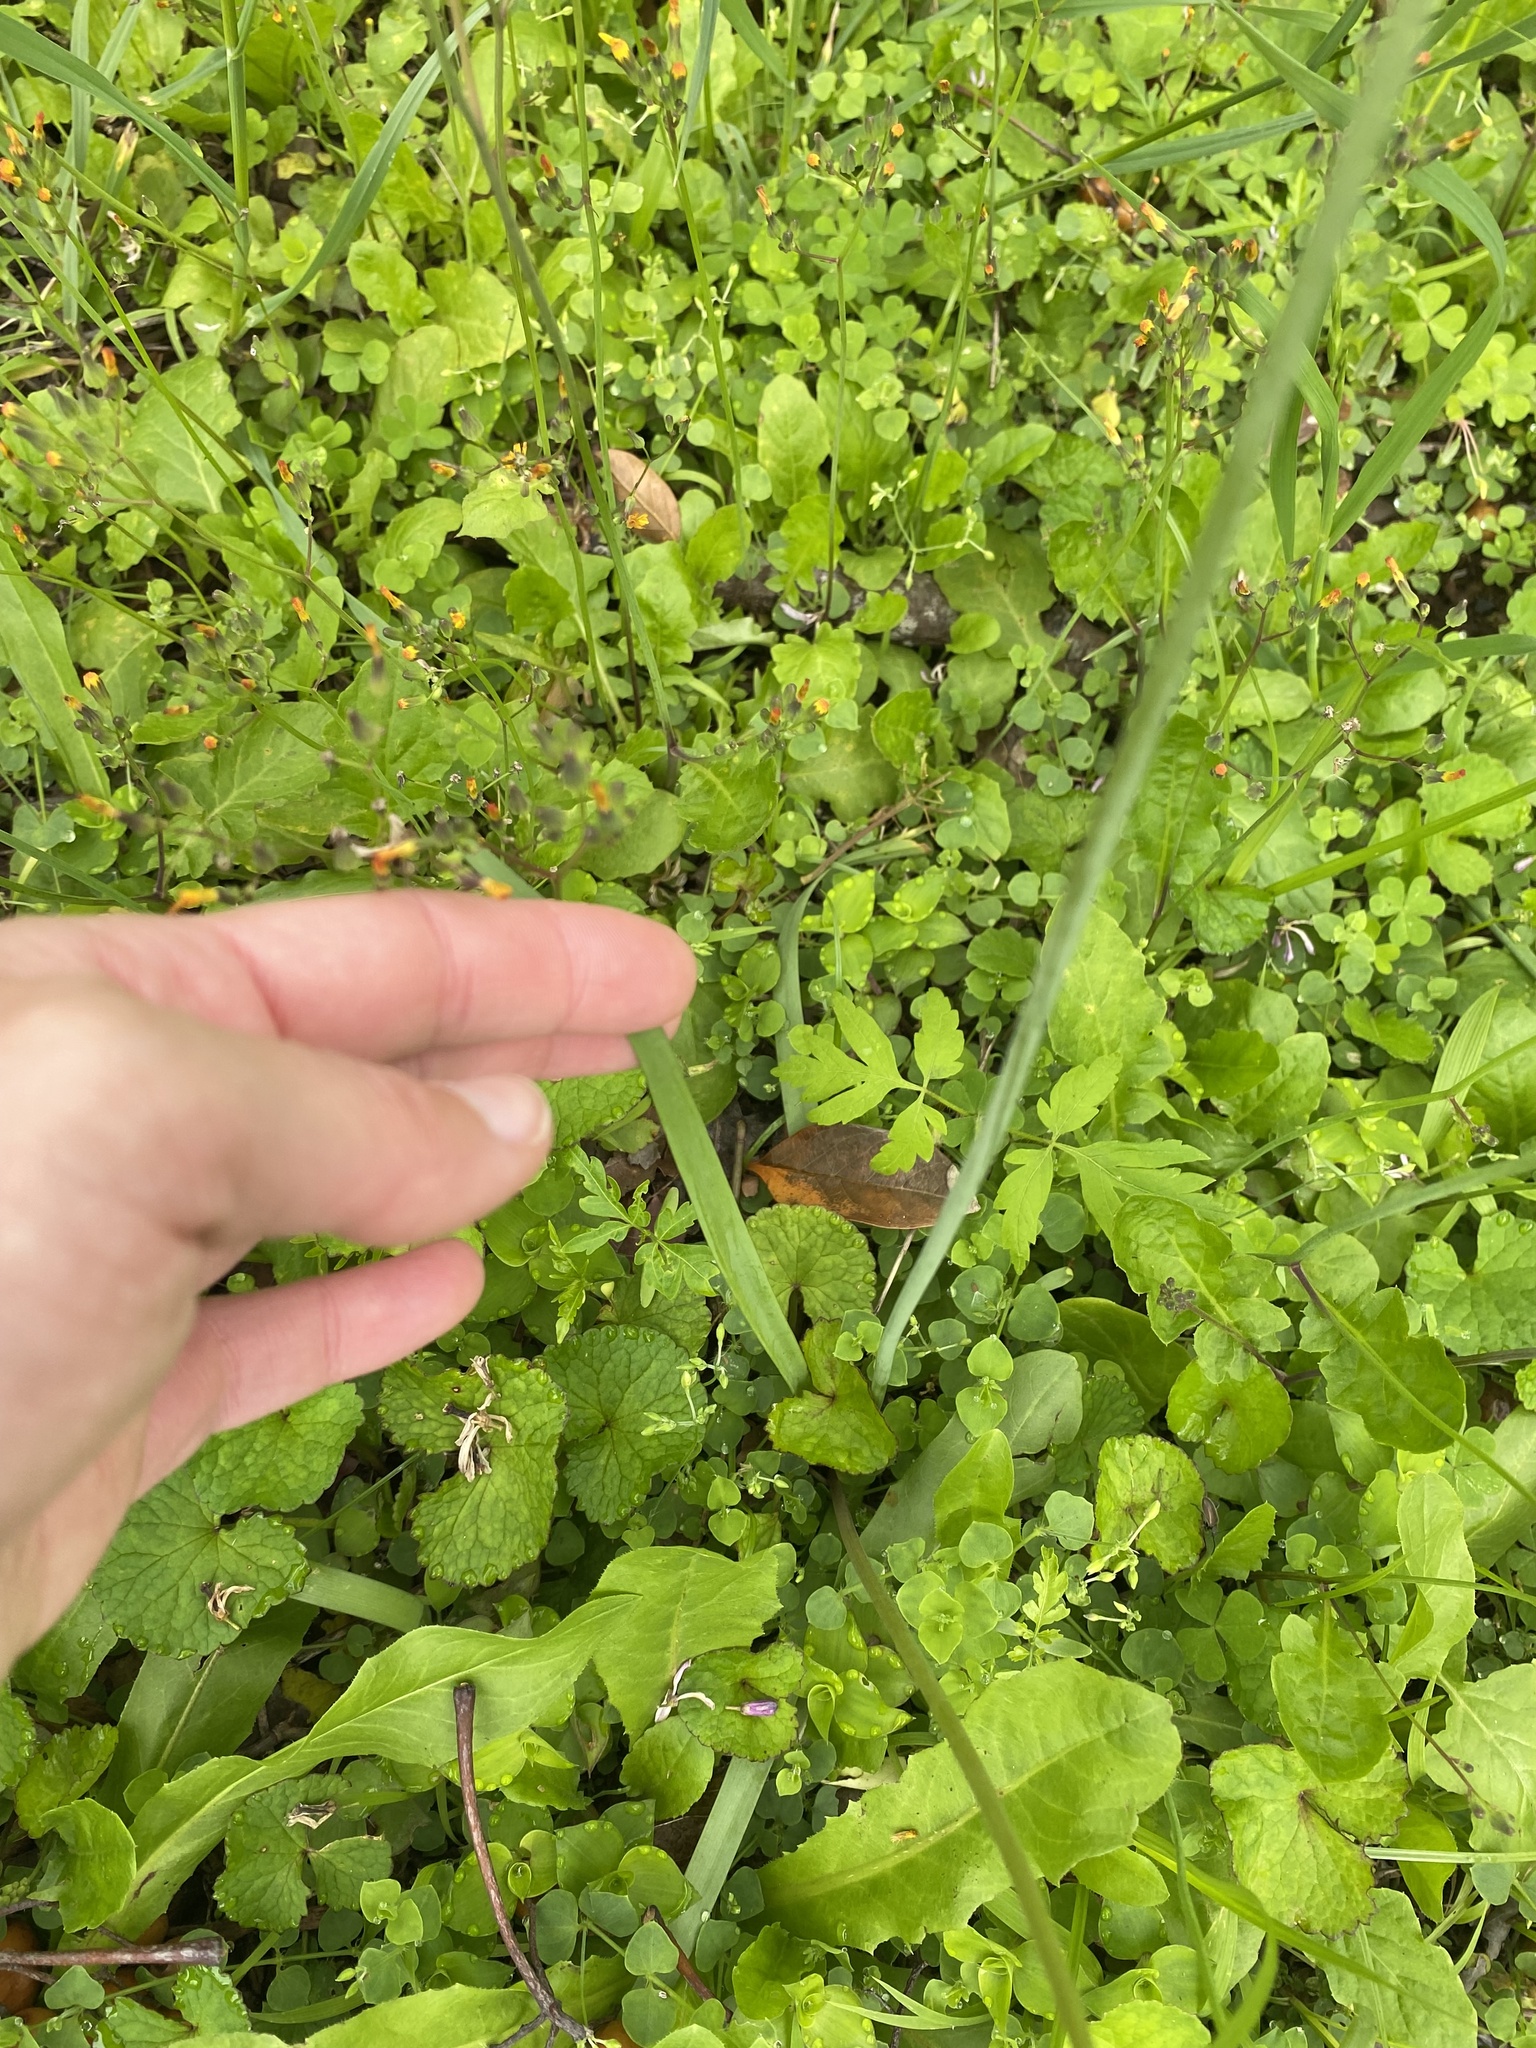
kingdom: Plantae
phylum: Tracheophyta
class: Liliopsida
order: Asparagales
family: Amaryllidaceae
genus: Nothoscordum
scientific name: Nothoscordum gracile
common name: Slender false garlic
